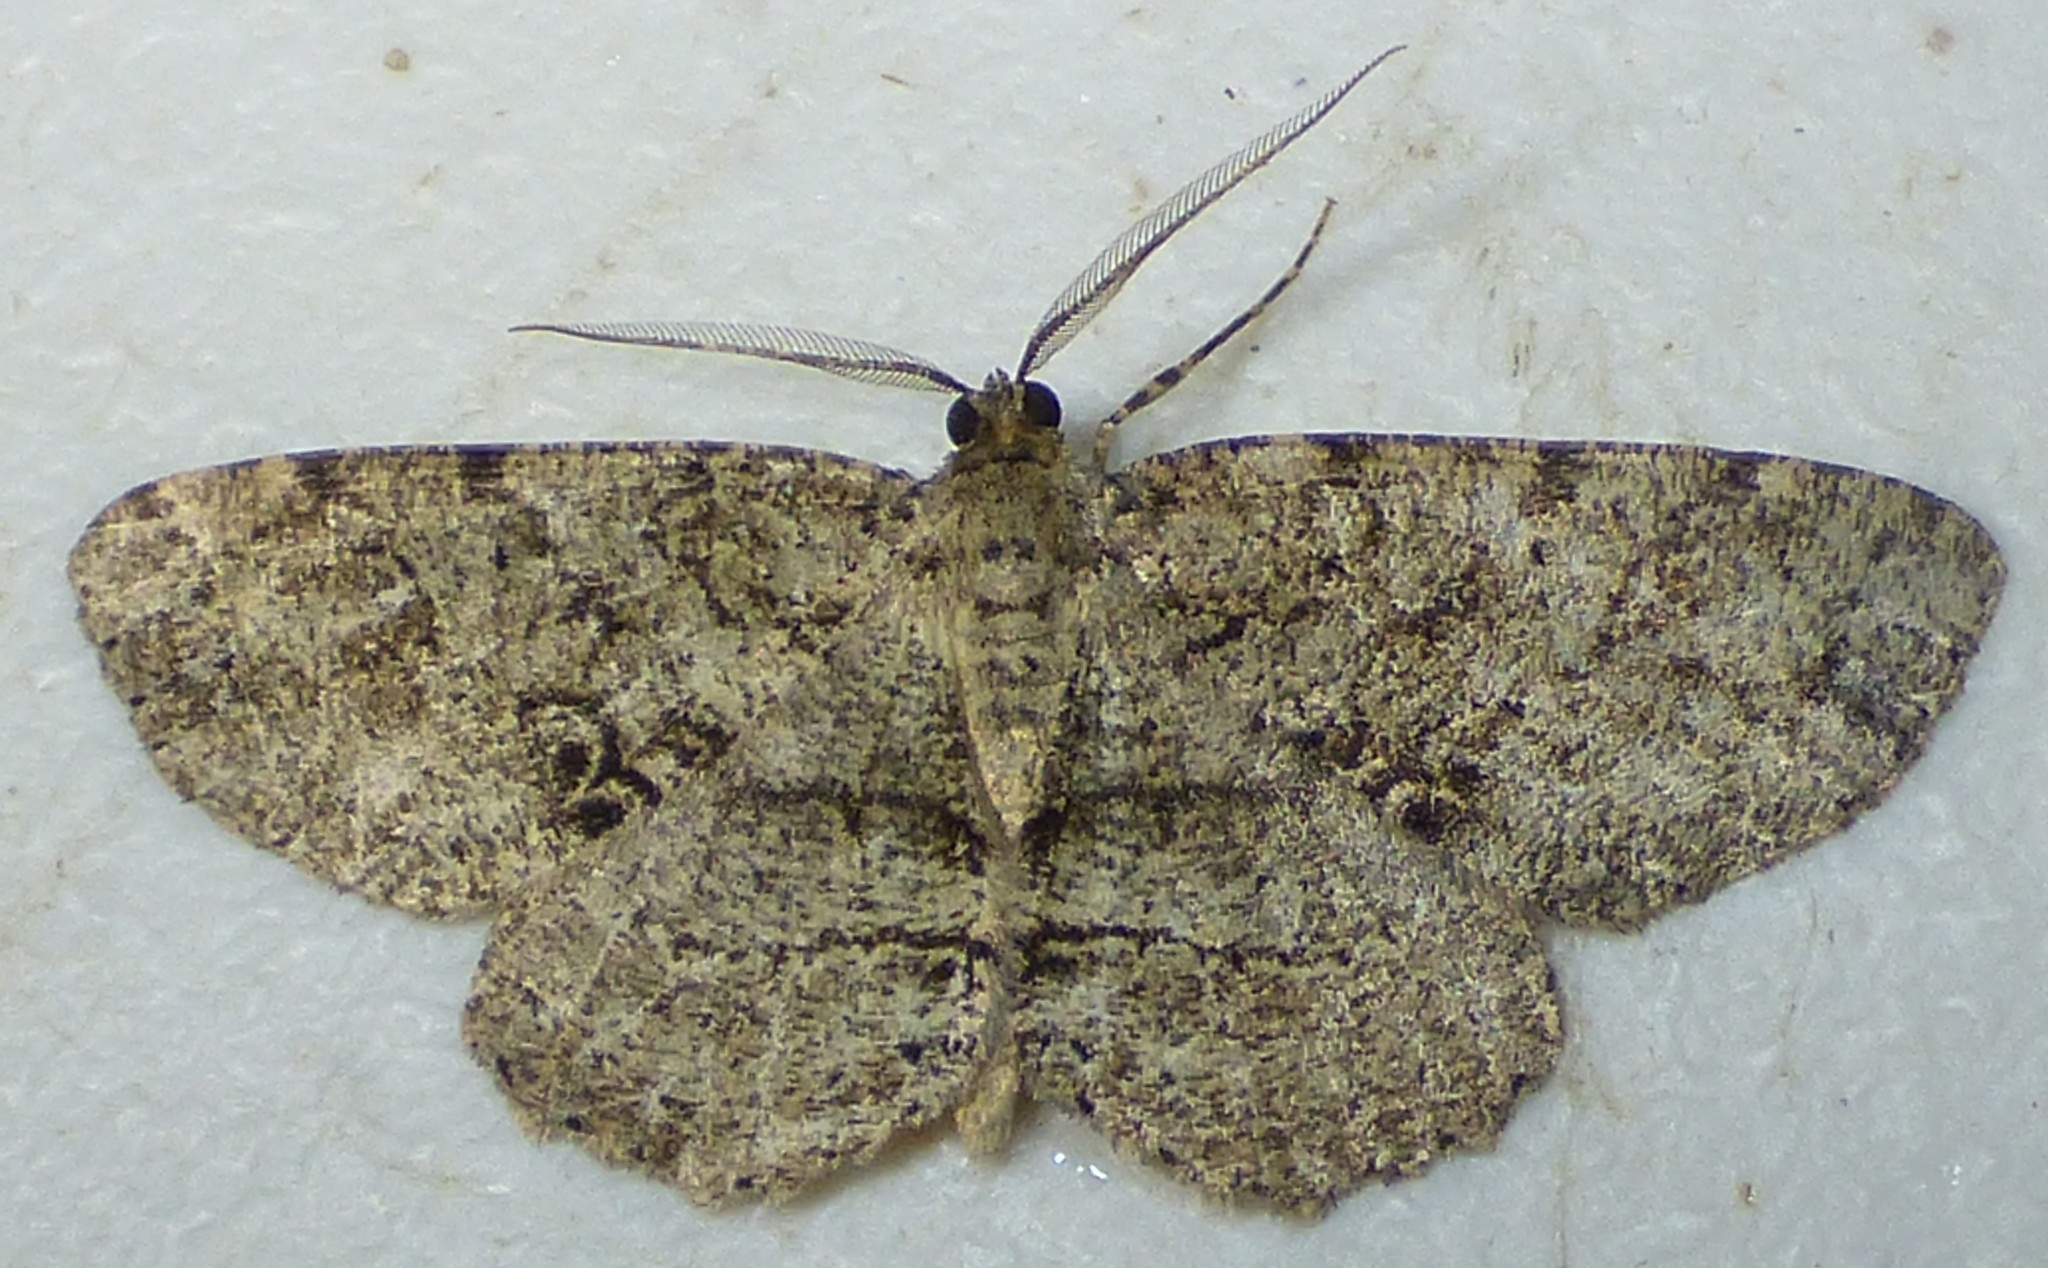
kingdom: Animalia
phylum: Arthropoda
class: Insecta
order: Lepidoptera
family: Geometridae
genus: Melanolophia
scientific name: Melanolophia canadaria
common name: Canadian melanolophia
